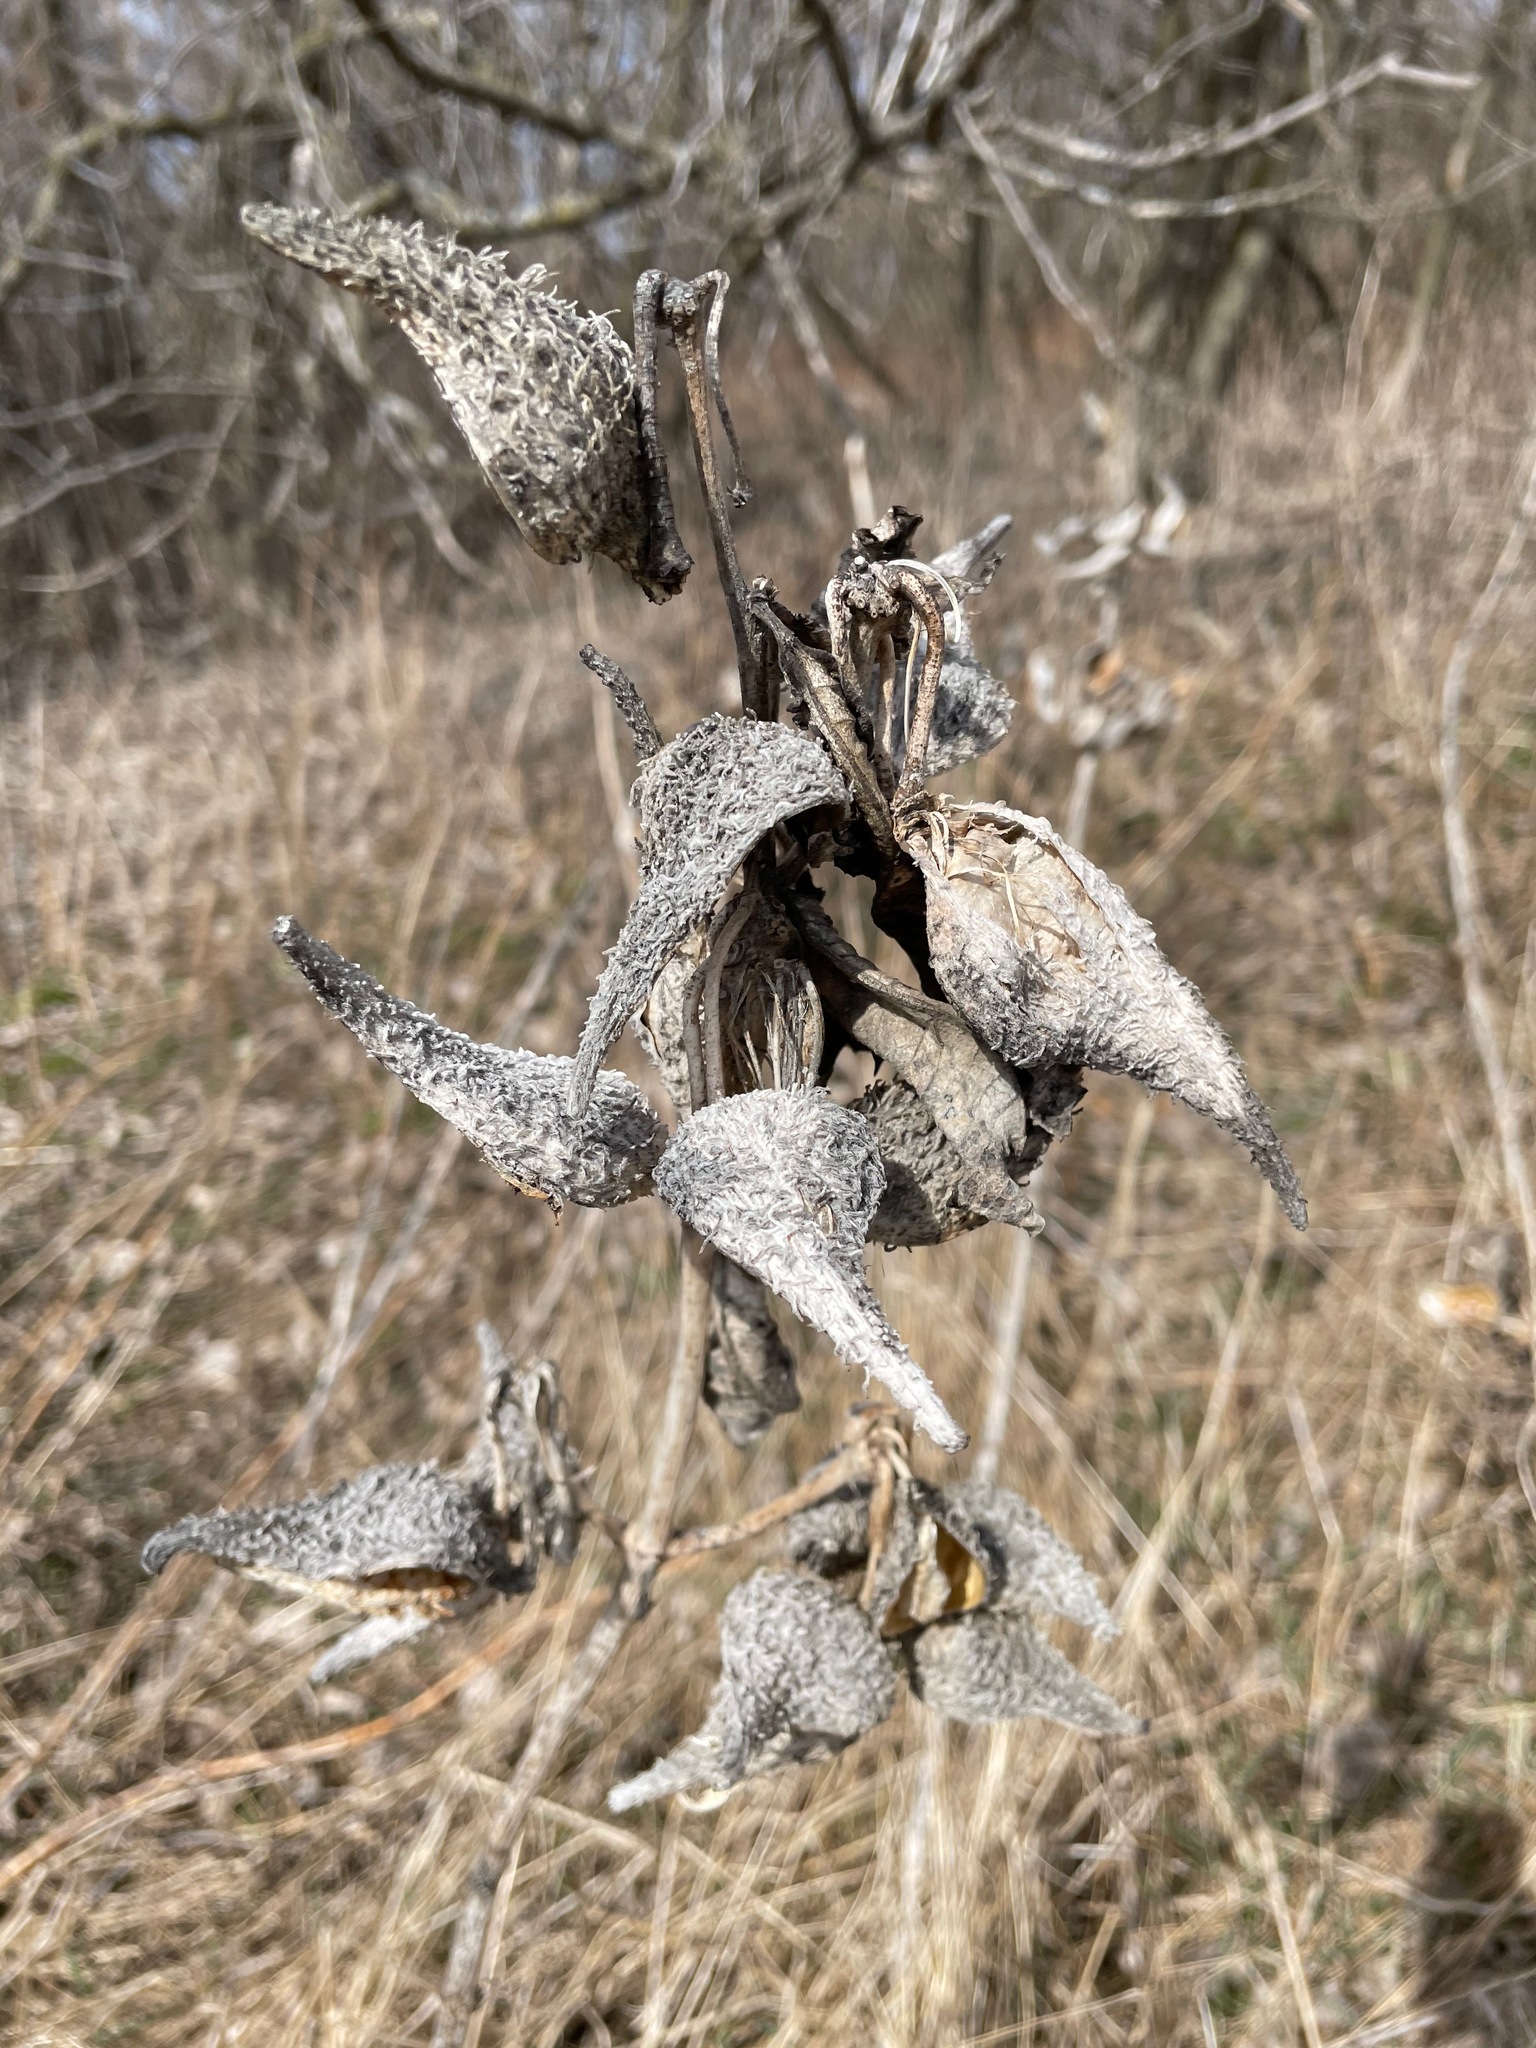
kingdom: Plantae
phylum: Tracheophyta
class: Magnoliopsida
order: Gentianales
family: Apocynaceae
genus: Asclepias
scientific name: Asclepias syriaca
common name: Common milkweed
